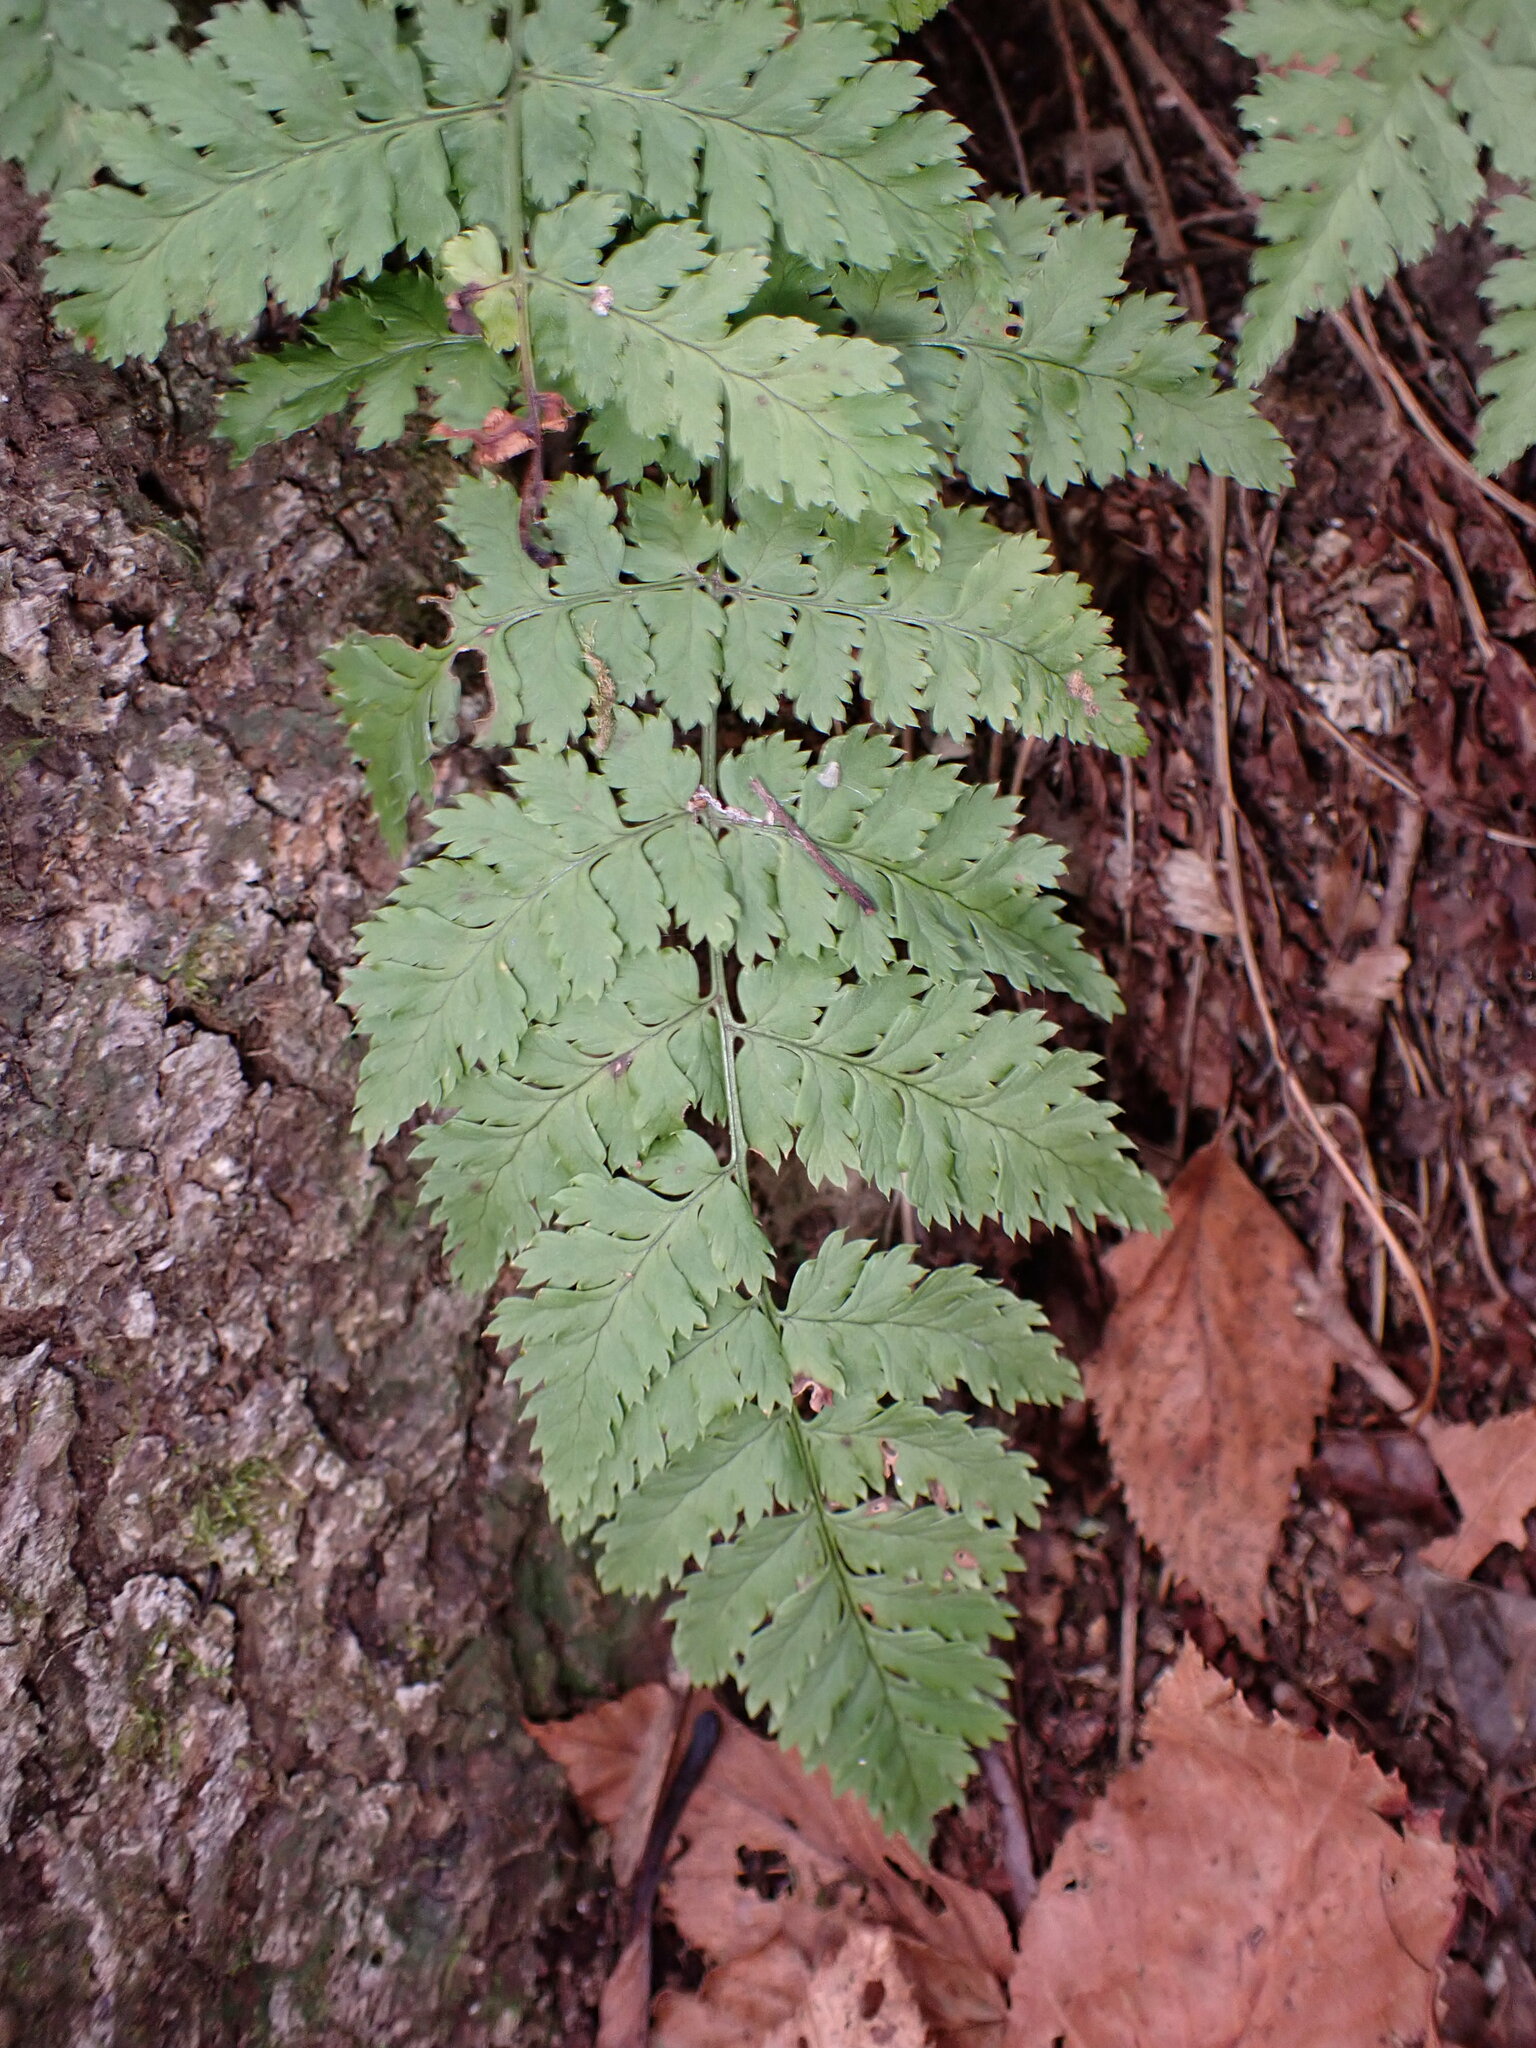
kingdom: Plantae
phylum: Tracheophyta
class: Polypodiopsida
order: Polypodiales
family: Dryopteridaceae
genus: Dryopteris
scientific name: Dryopteris intermedia
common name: Evergreen wood fern
